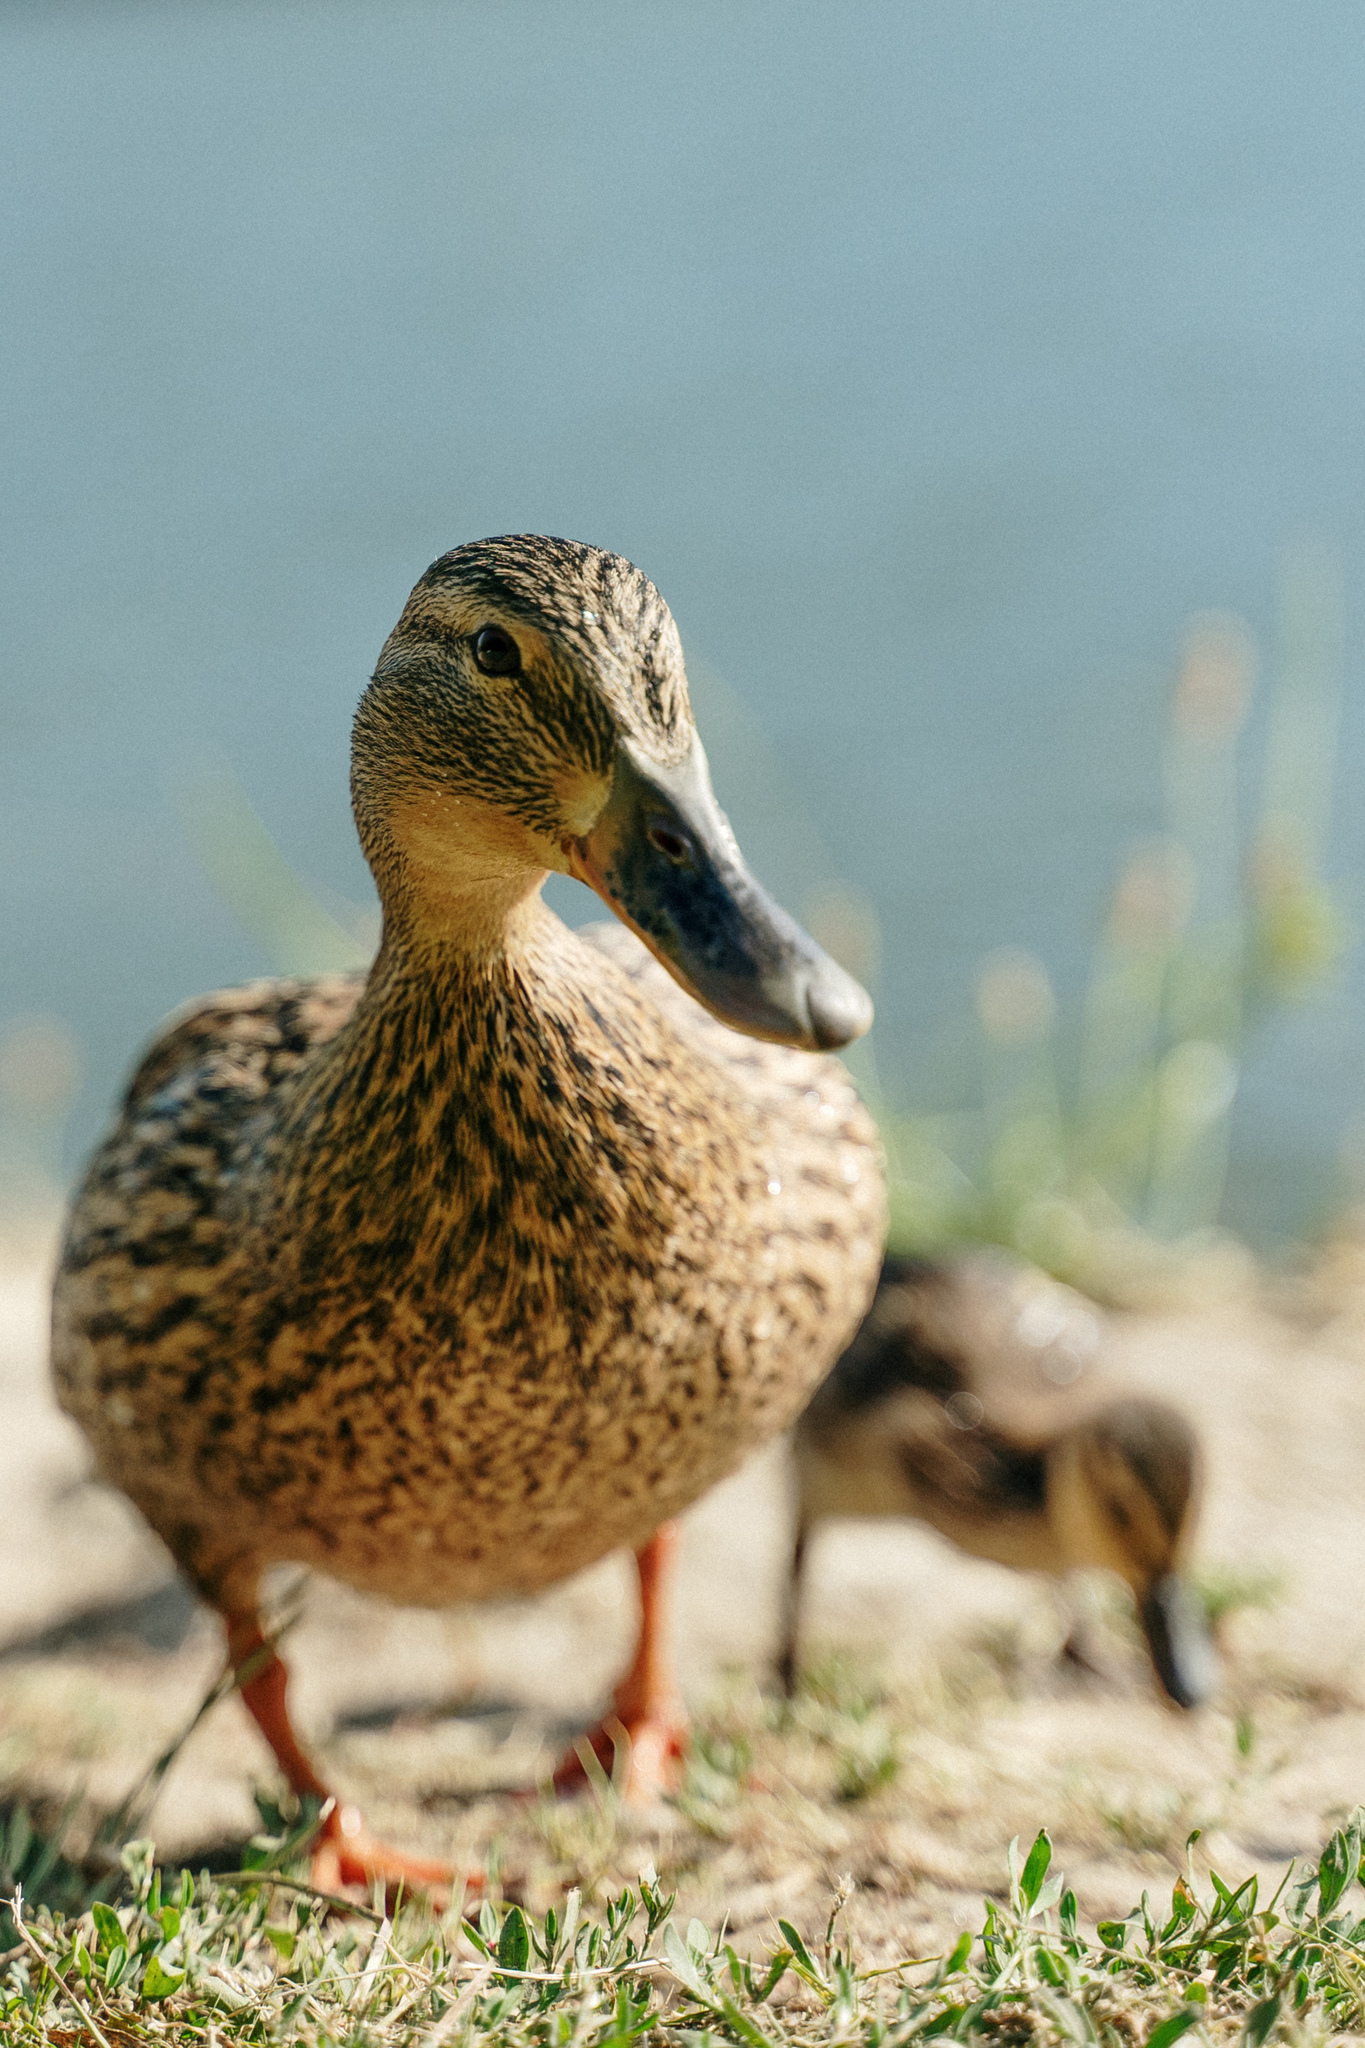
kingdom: Animalia
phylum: Chordata
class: Aves
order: Anseriformes
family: Anatidae
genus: Anas
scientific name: Anas platyrhynchos
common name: Mallard
